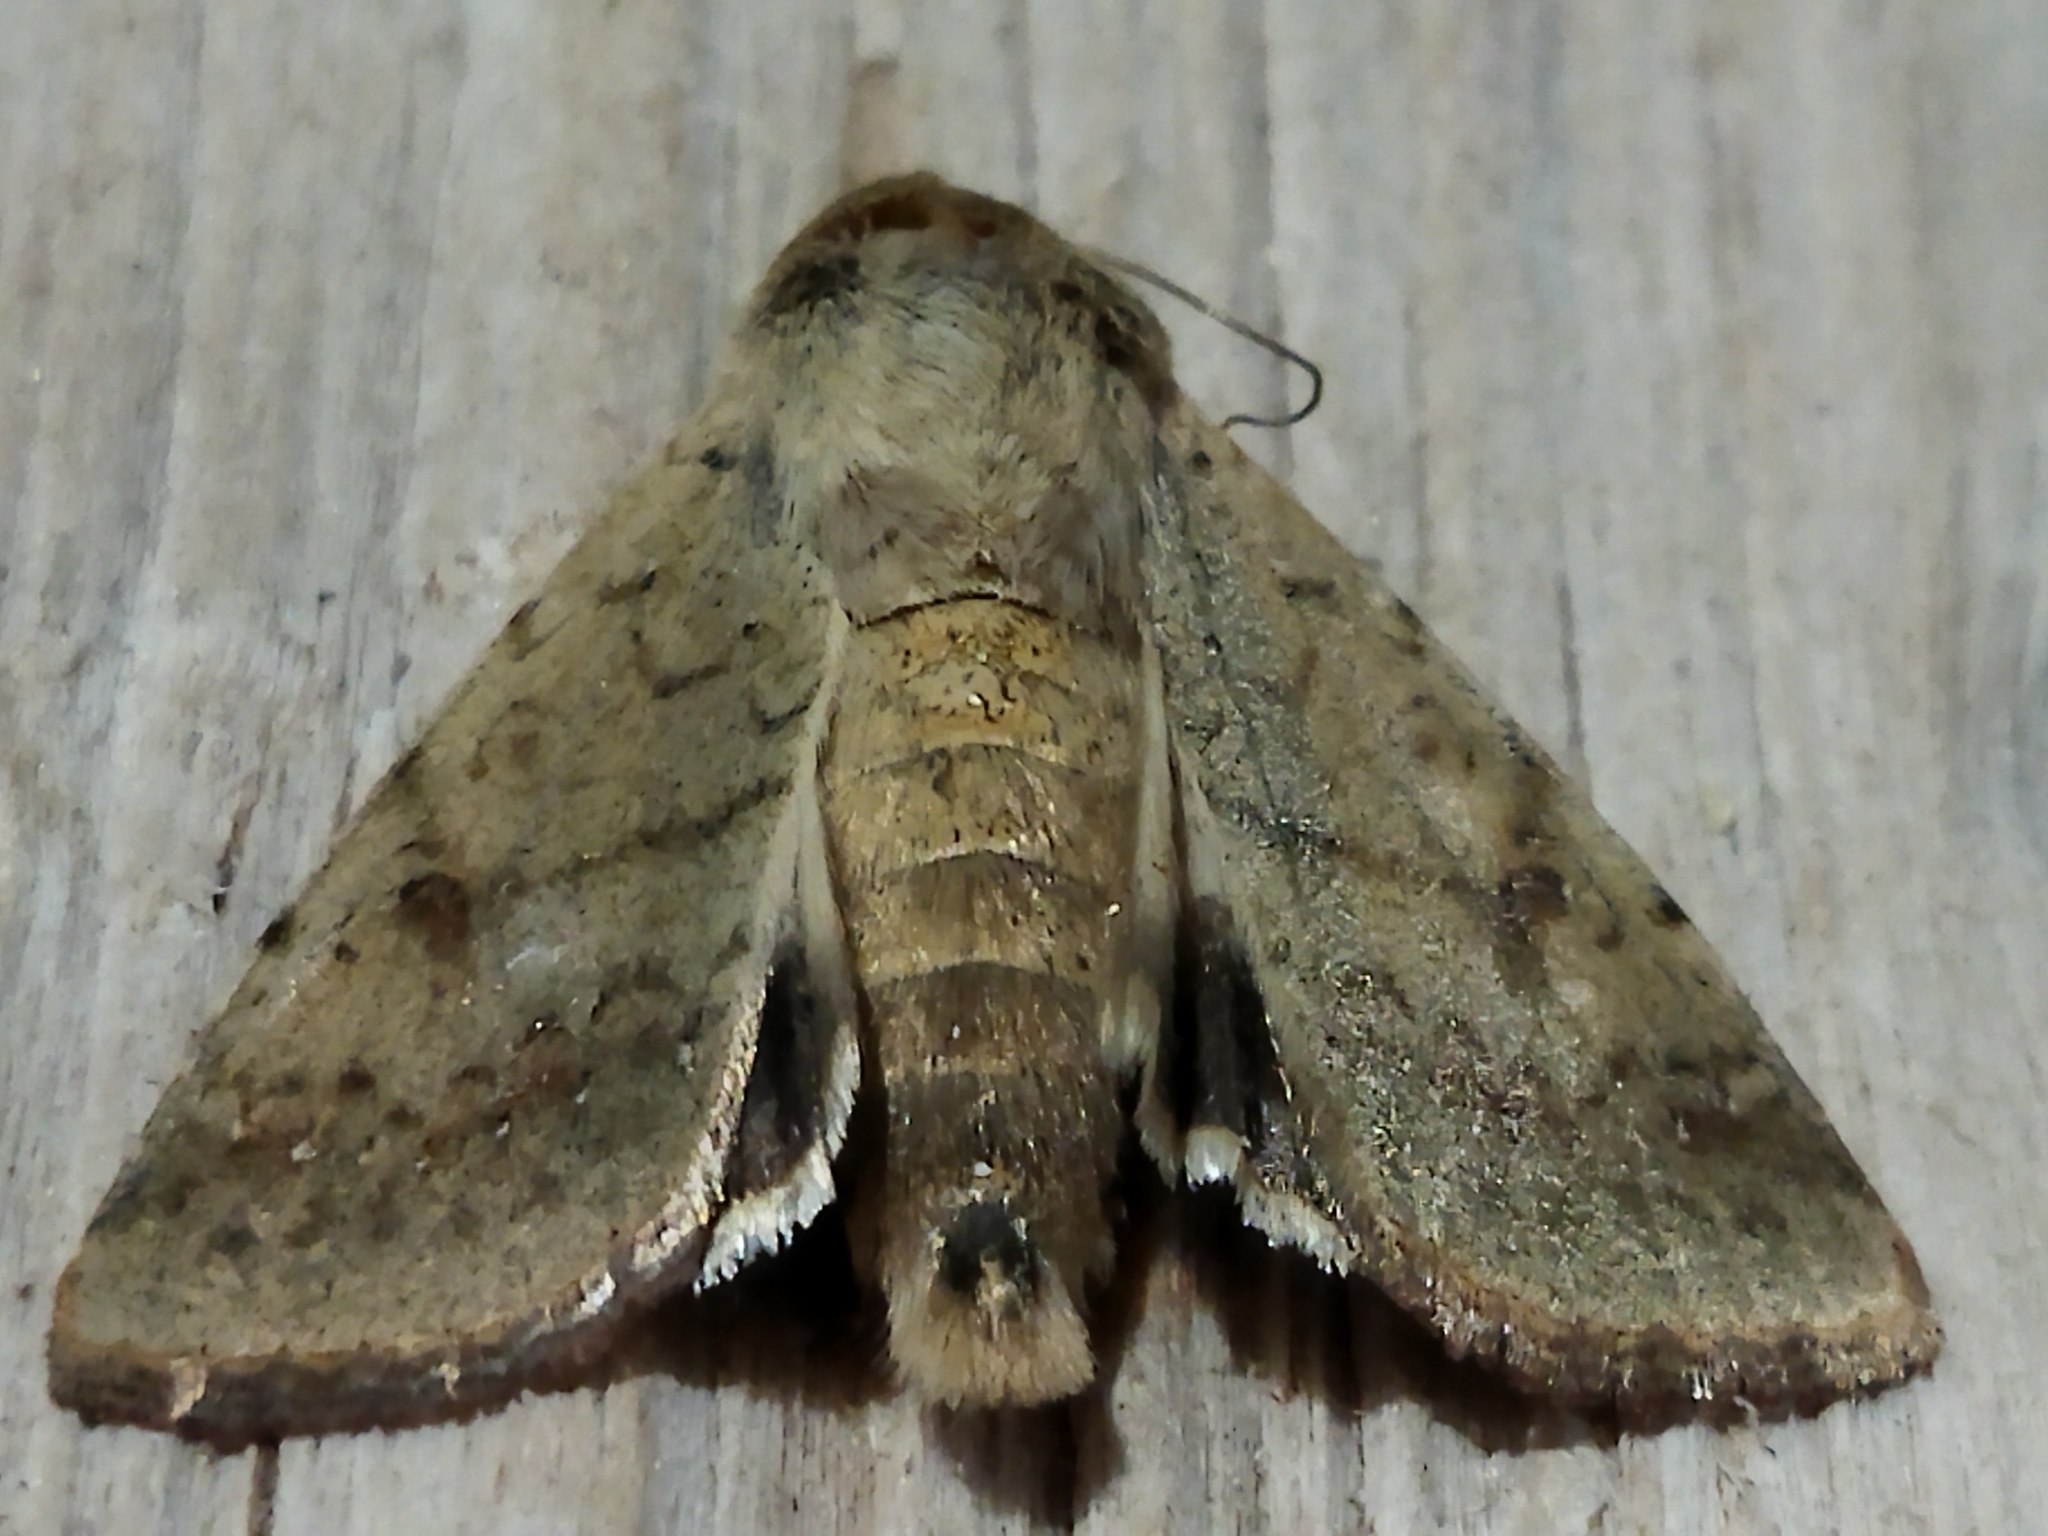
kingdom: Animalia
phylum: Arthropoda
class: Insecta
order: Lepidoptera
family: Noctuidae
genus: Helicoverpa
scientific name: Helicoverpa armigera
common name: Cotton bollworm
